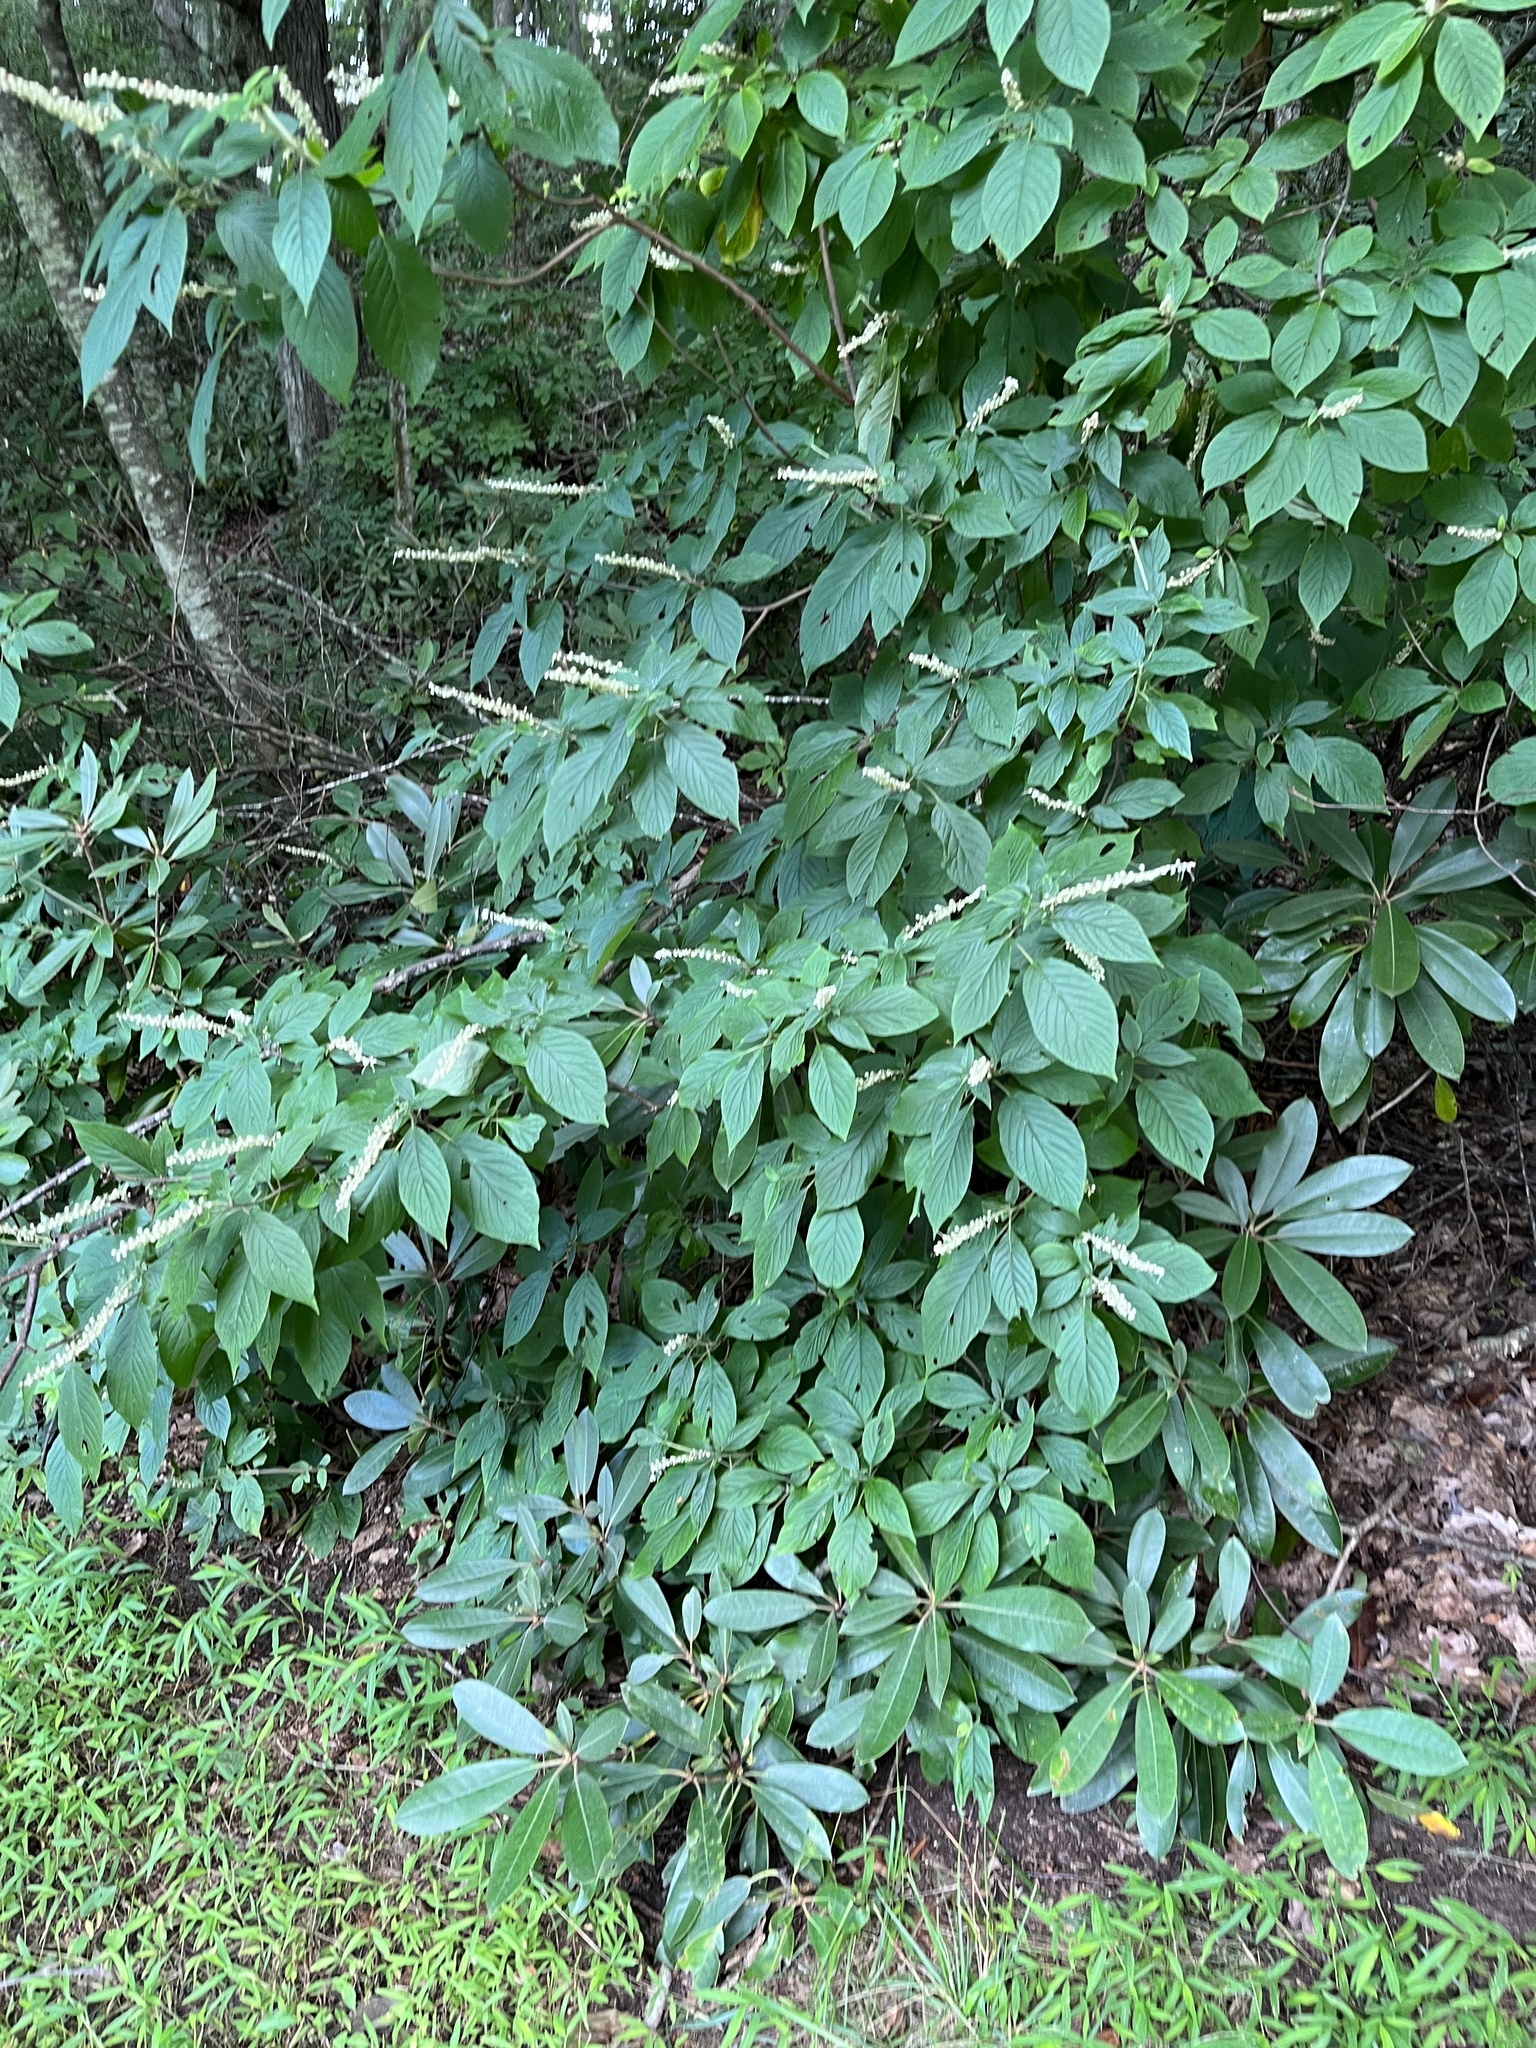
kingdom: Plantae
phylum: Tracheophyta
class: Magnoliopsida
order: Ericales
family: Clethraceae
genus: Clethra
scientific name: Clethra acuminata
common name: Mountain sweet pepperbush
